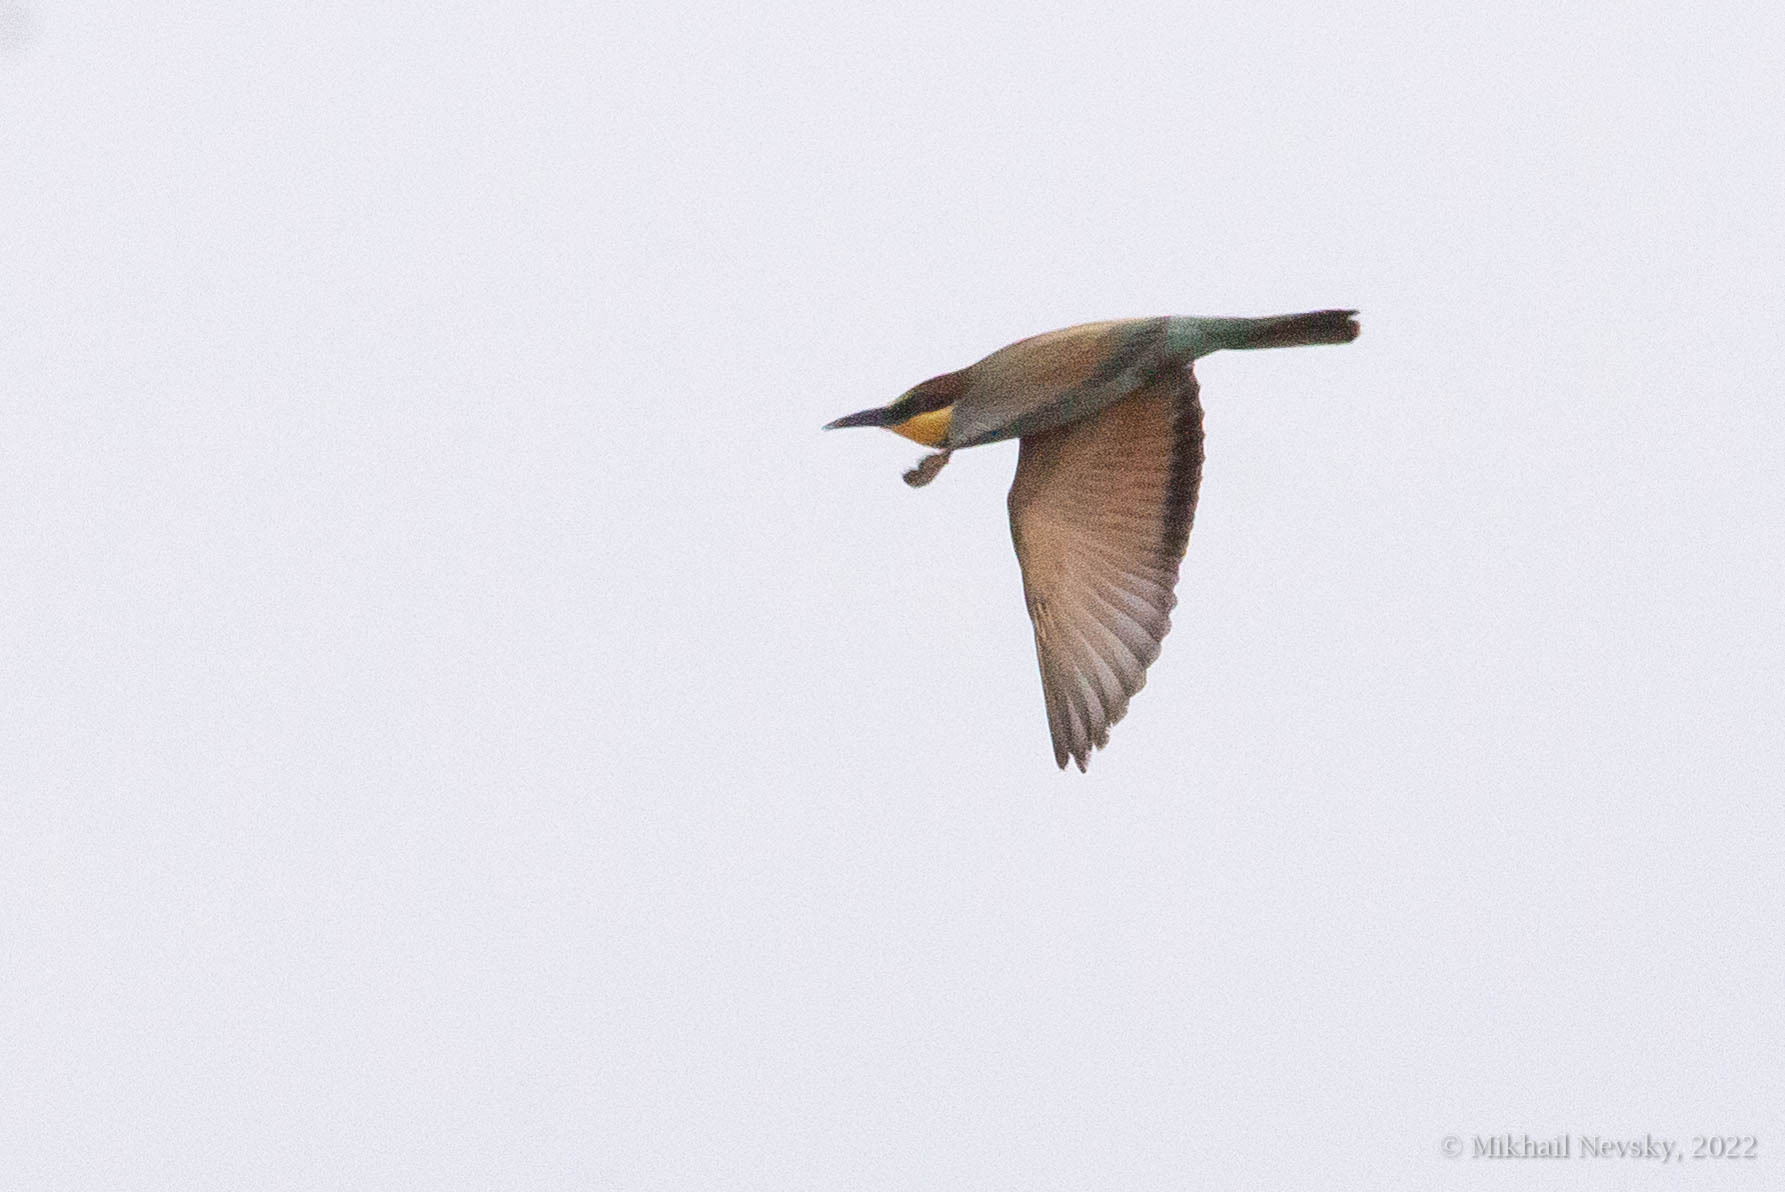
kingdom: Animalia
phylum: Chordata
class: Aves
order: Coraciiformes
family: Meropidae
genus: Merops
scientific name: Merops apiaster
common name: European bee-eater
